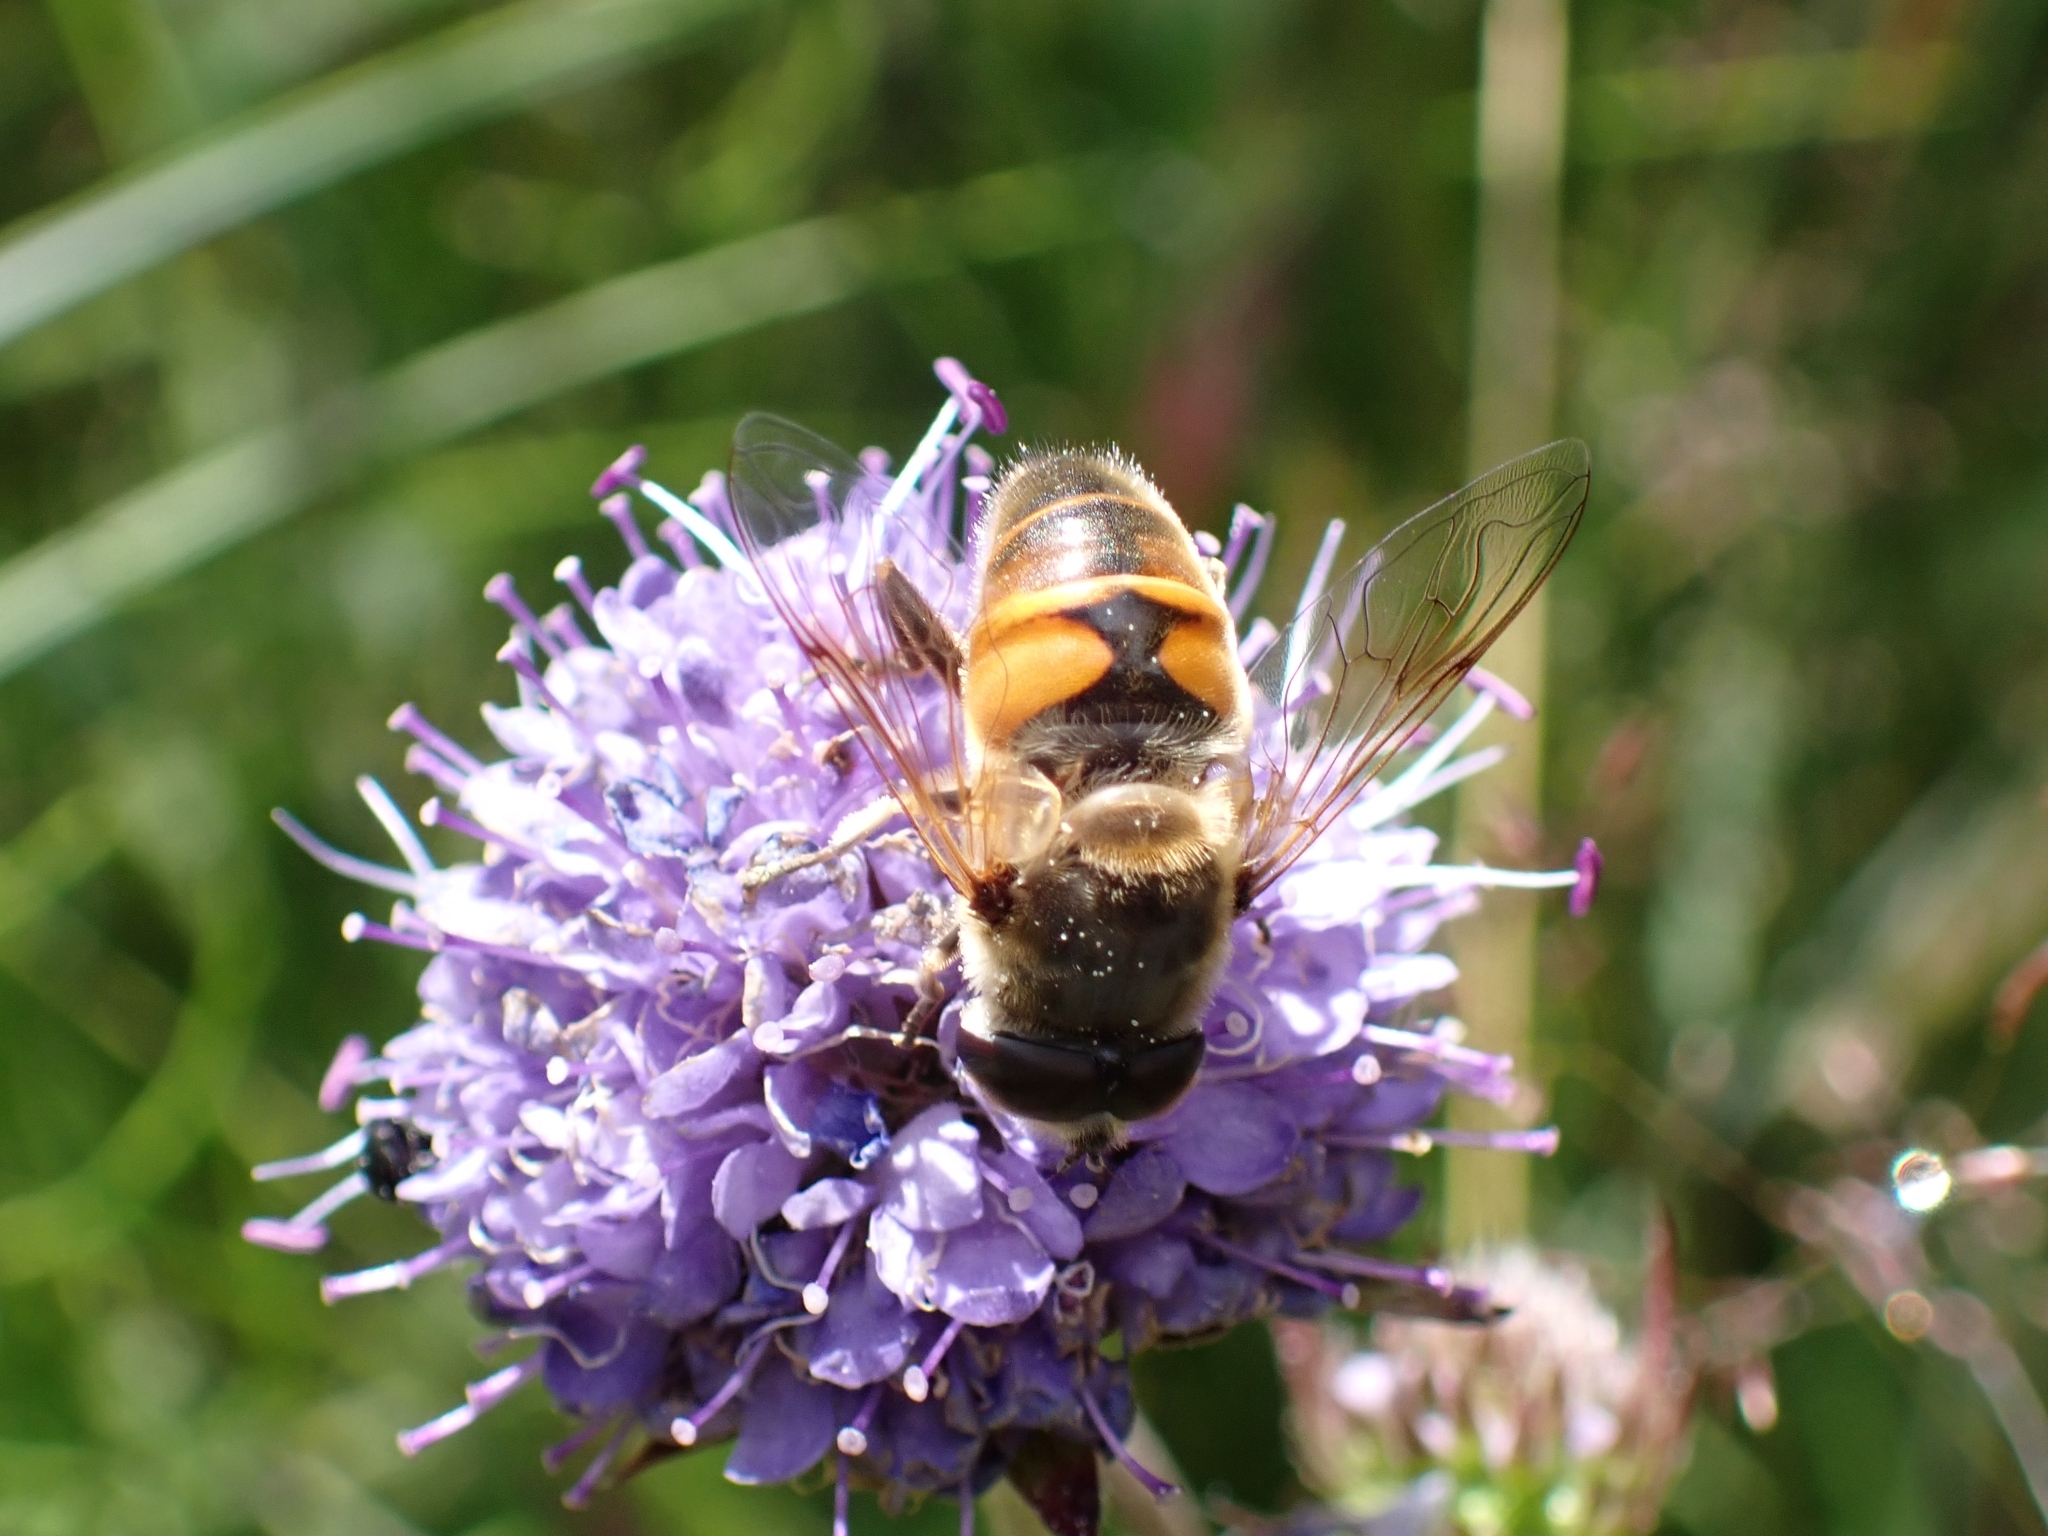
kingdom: Animalia
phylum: Arthropoda
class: Insecta
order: Diptera
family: Syrphidae
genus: Eristalis
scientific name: Eristalis tenax
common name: Drone fly
